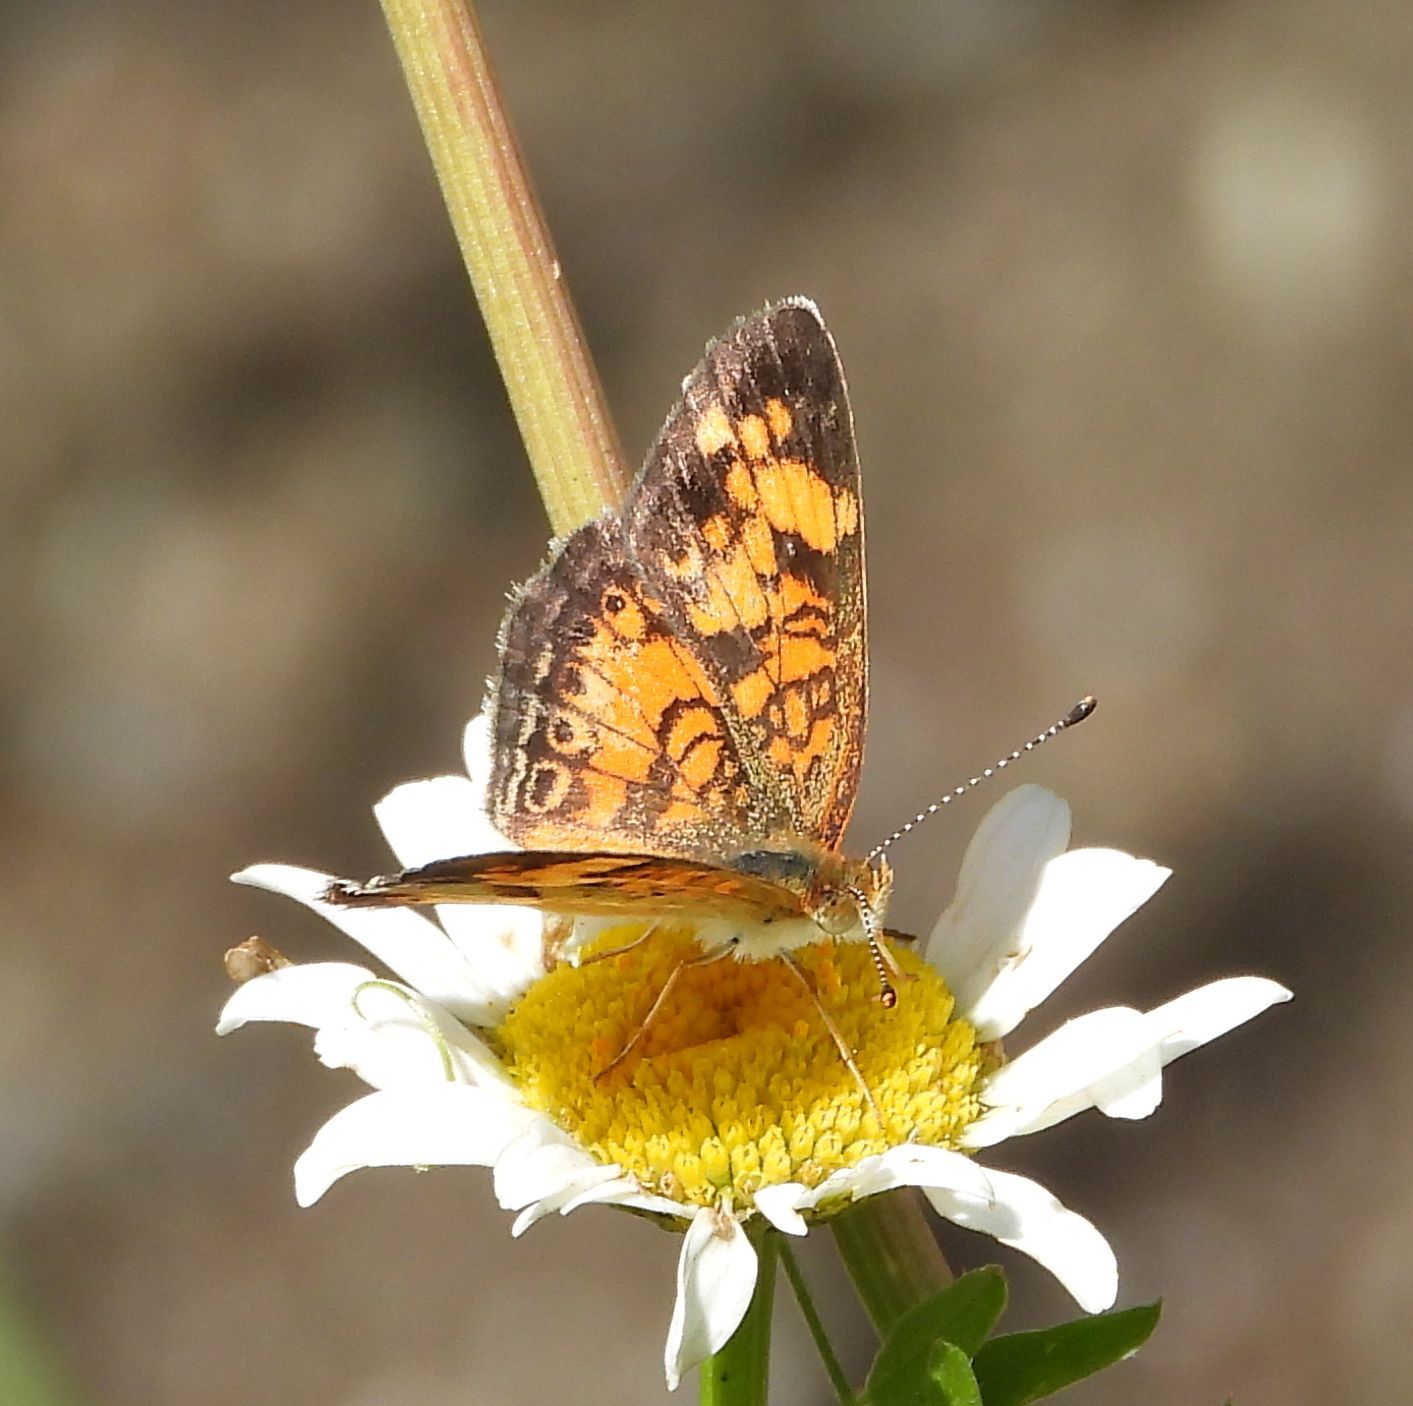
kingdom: Animalia
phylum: Arthropoda
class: Insecta
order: Lepidoptera
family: Nymphalidae
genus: Phyciodes
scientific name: Phyciodes tharos
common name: Pearl crescent
